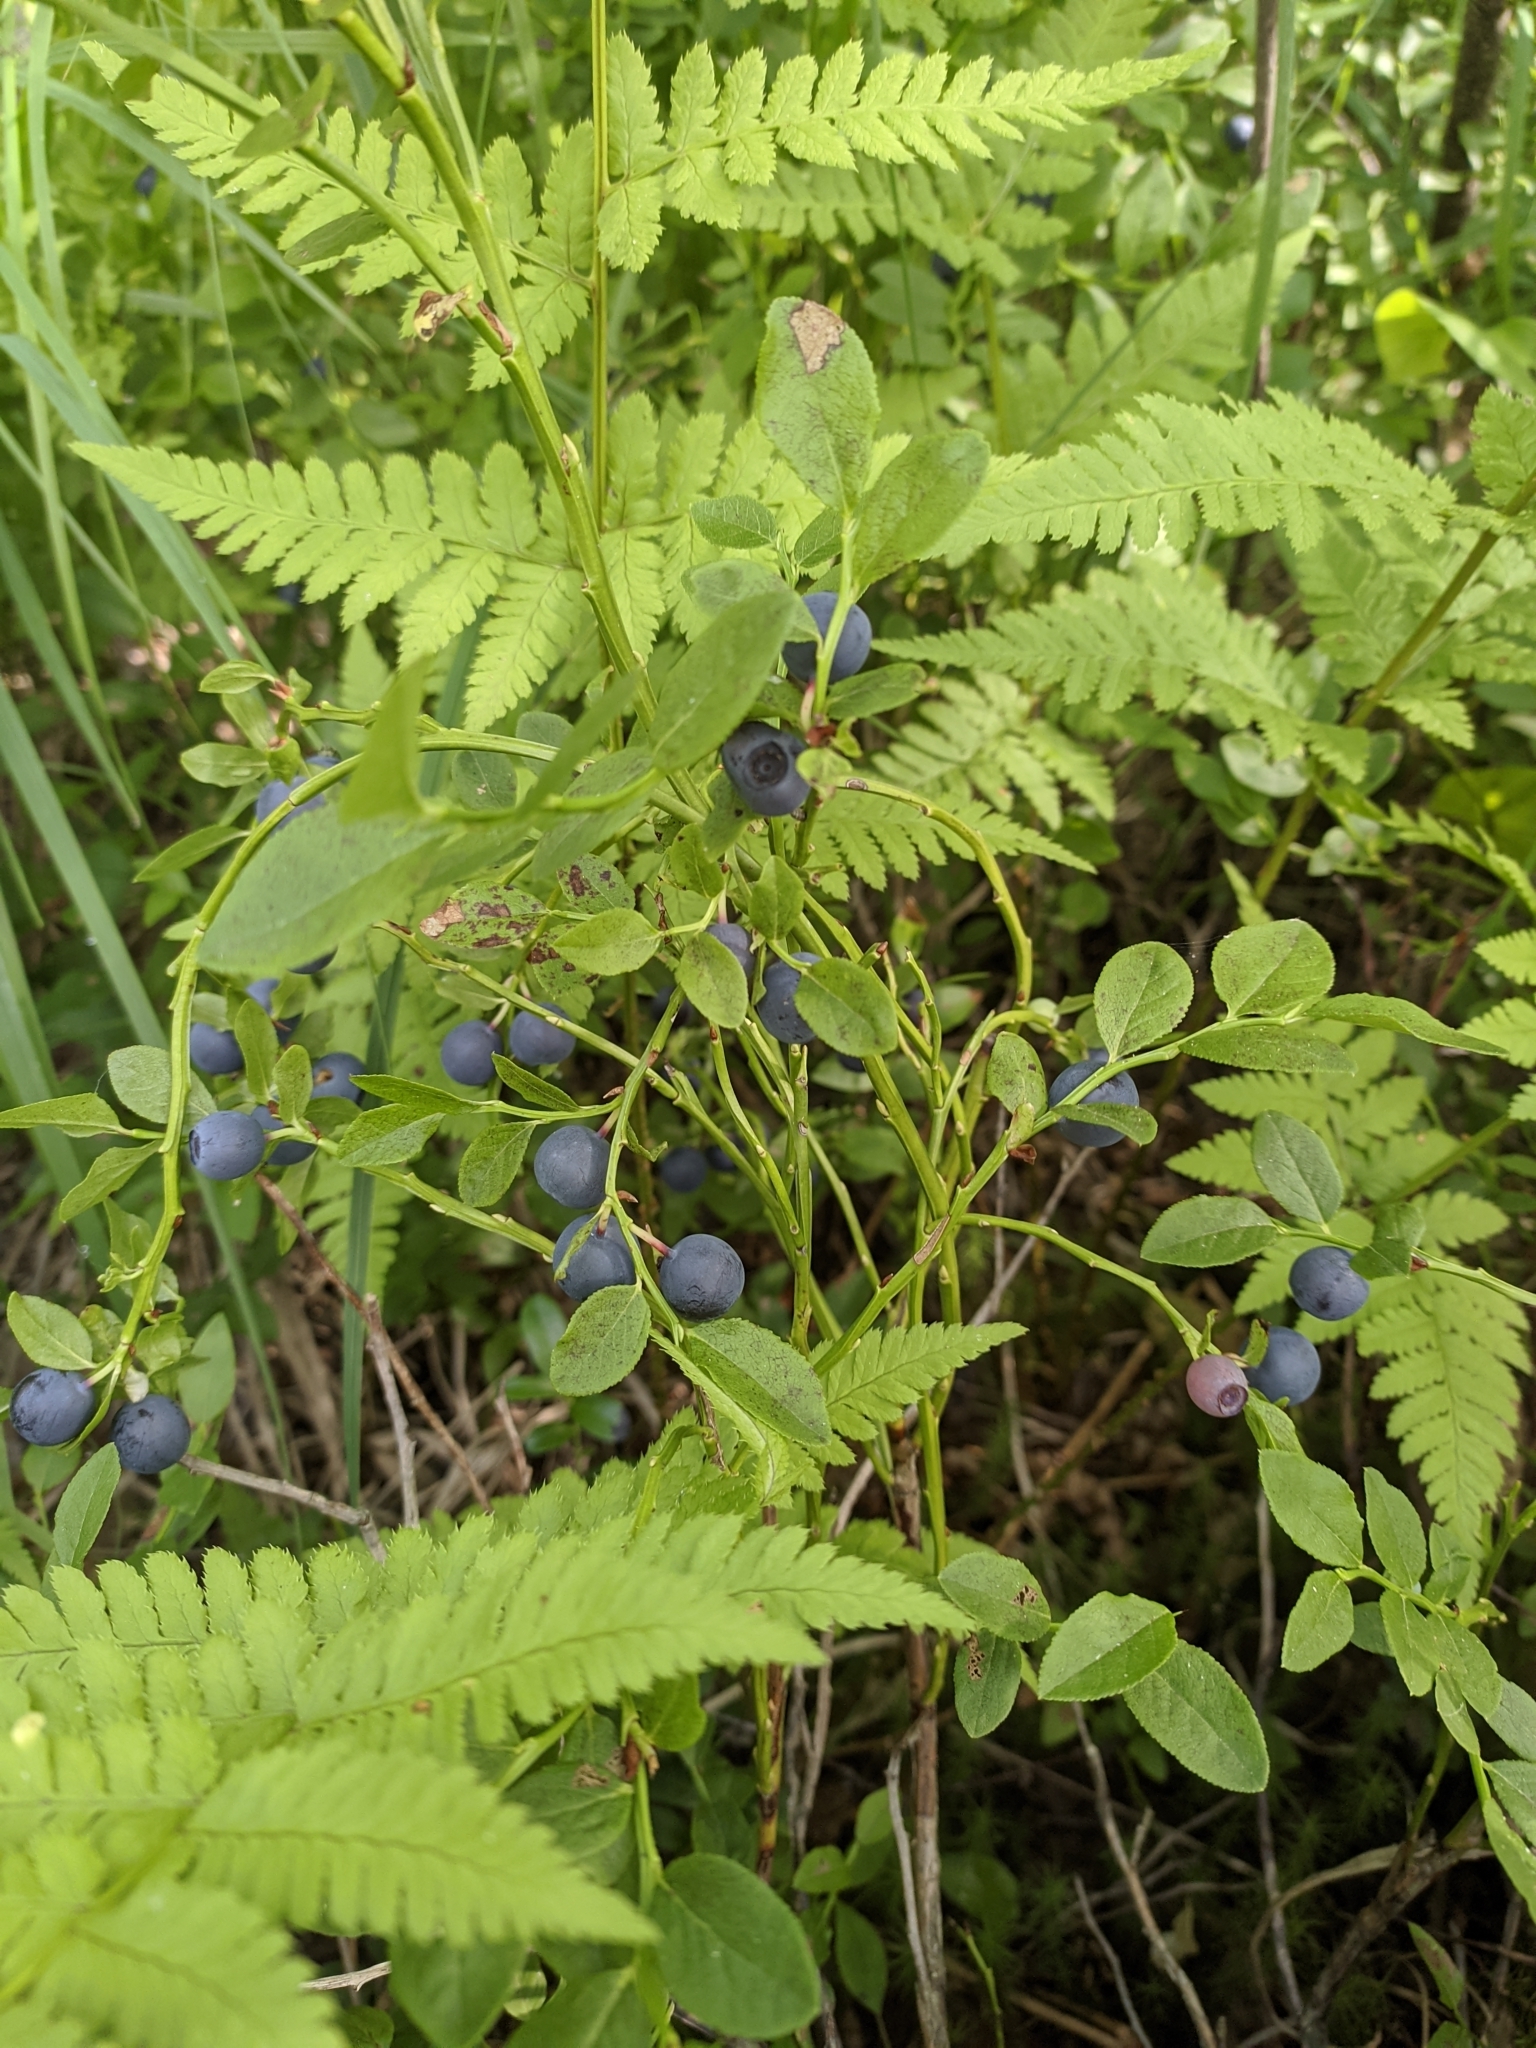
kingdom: Plantae
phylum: Tracheophyta
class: Magnoliopsida
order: Ericales
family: Ericaceae
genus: Vaccinium
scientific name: Vaccinium myrtillus
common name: Bilberry
